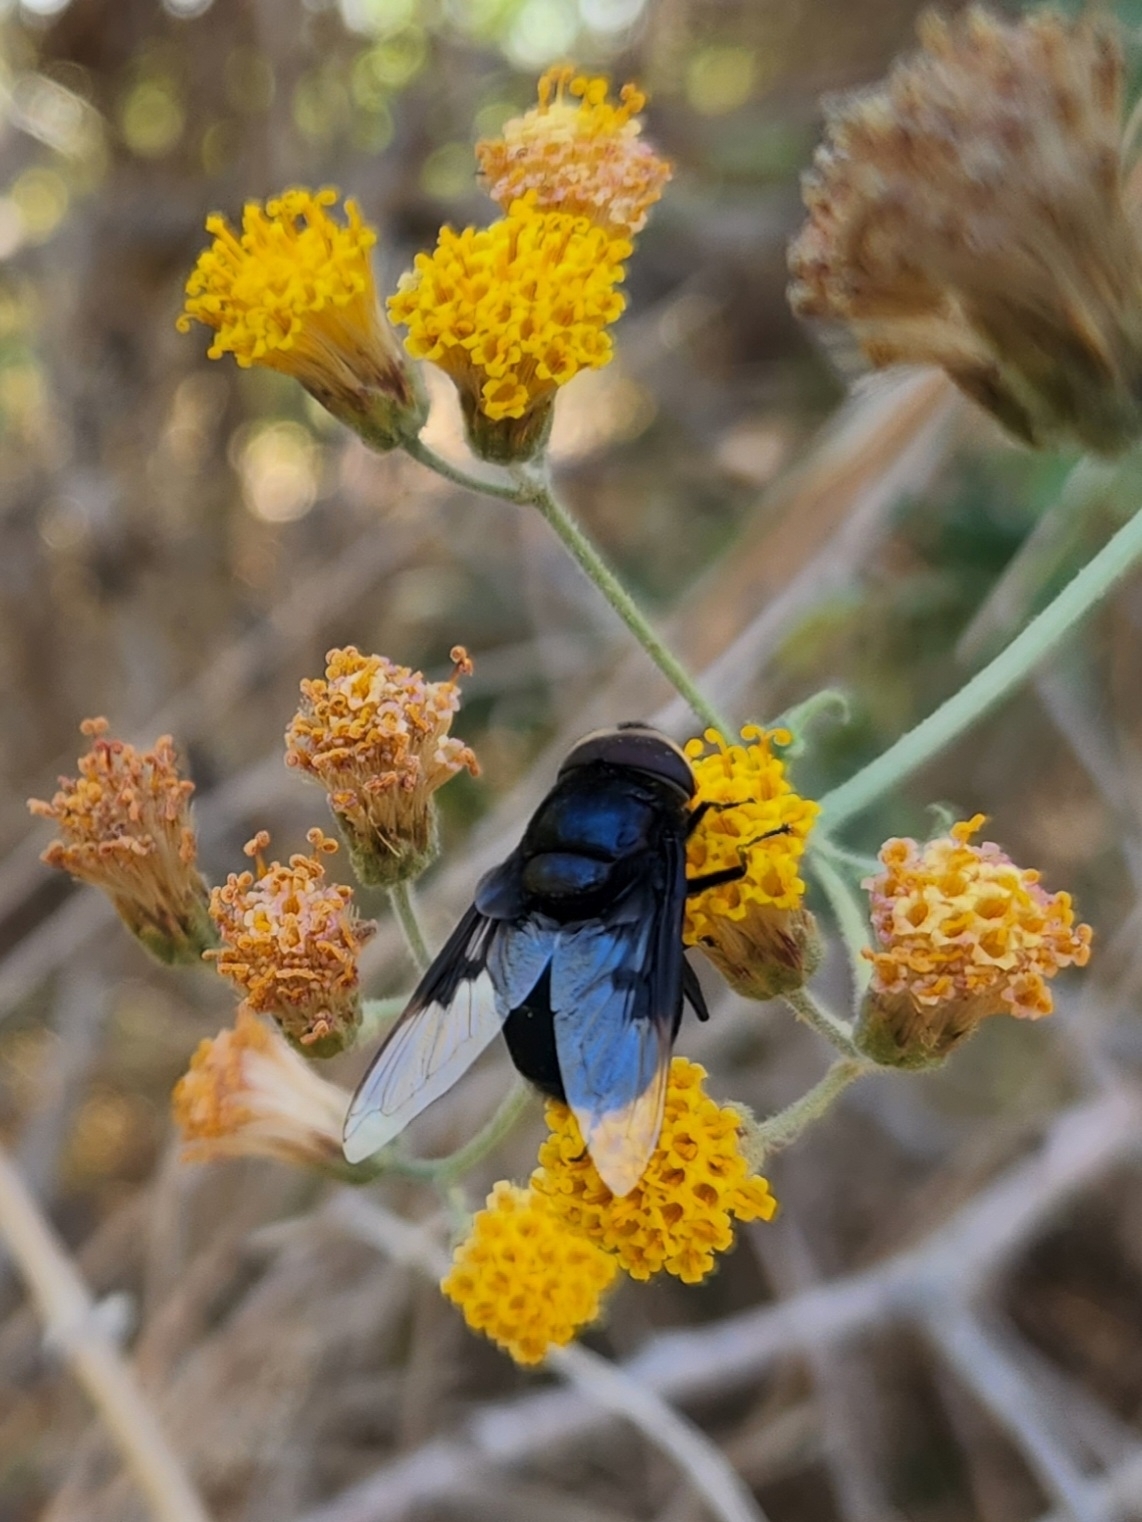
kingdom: Plantae
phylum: Tracheophyta
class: Magnoliopsida
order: Asterales
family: Asteraceae
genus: Bebbia
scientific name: Bebbia atriplicifolia
